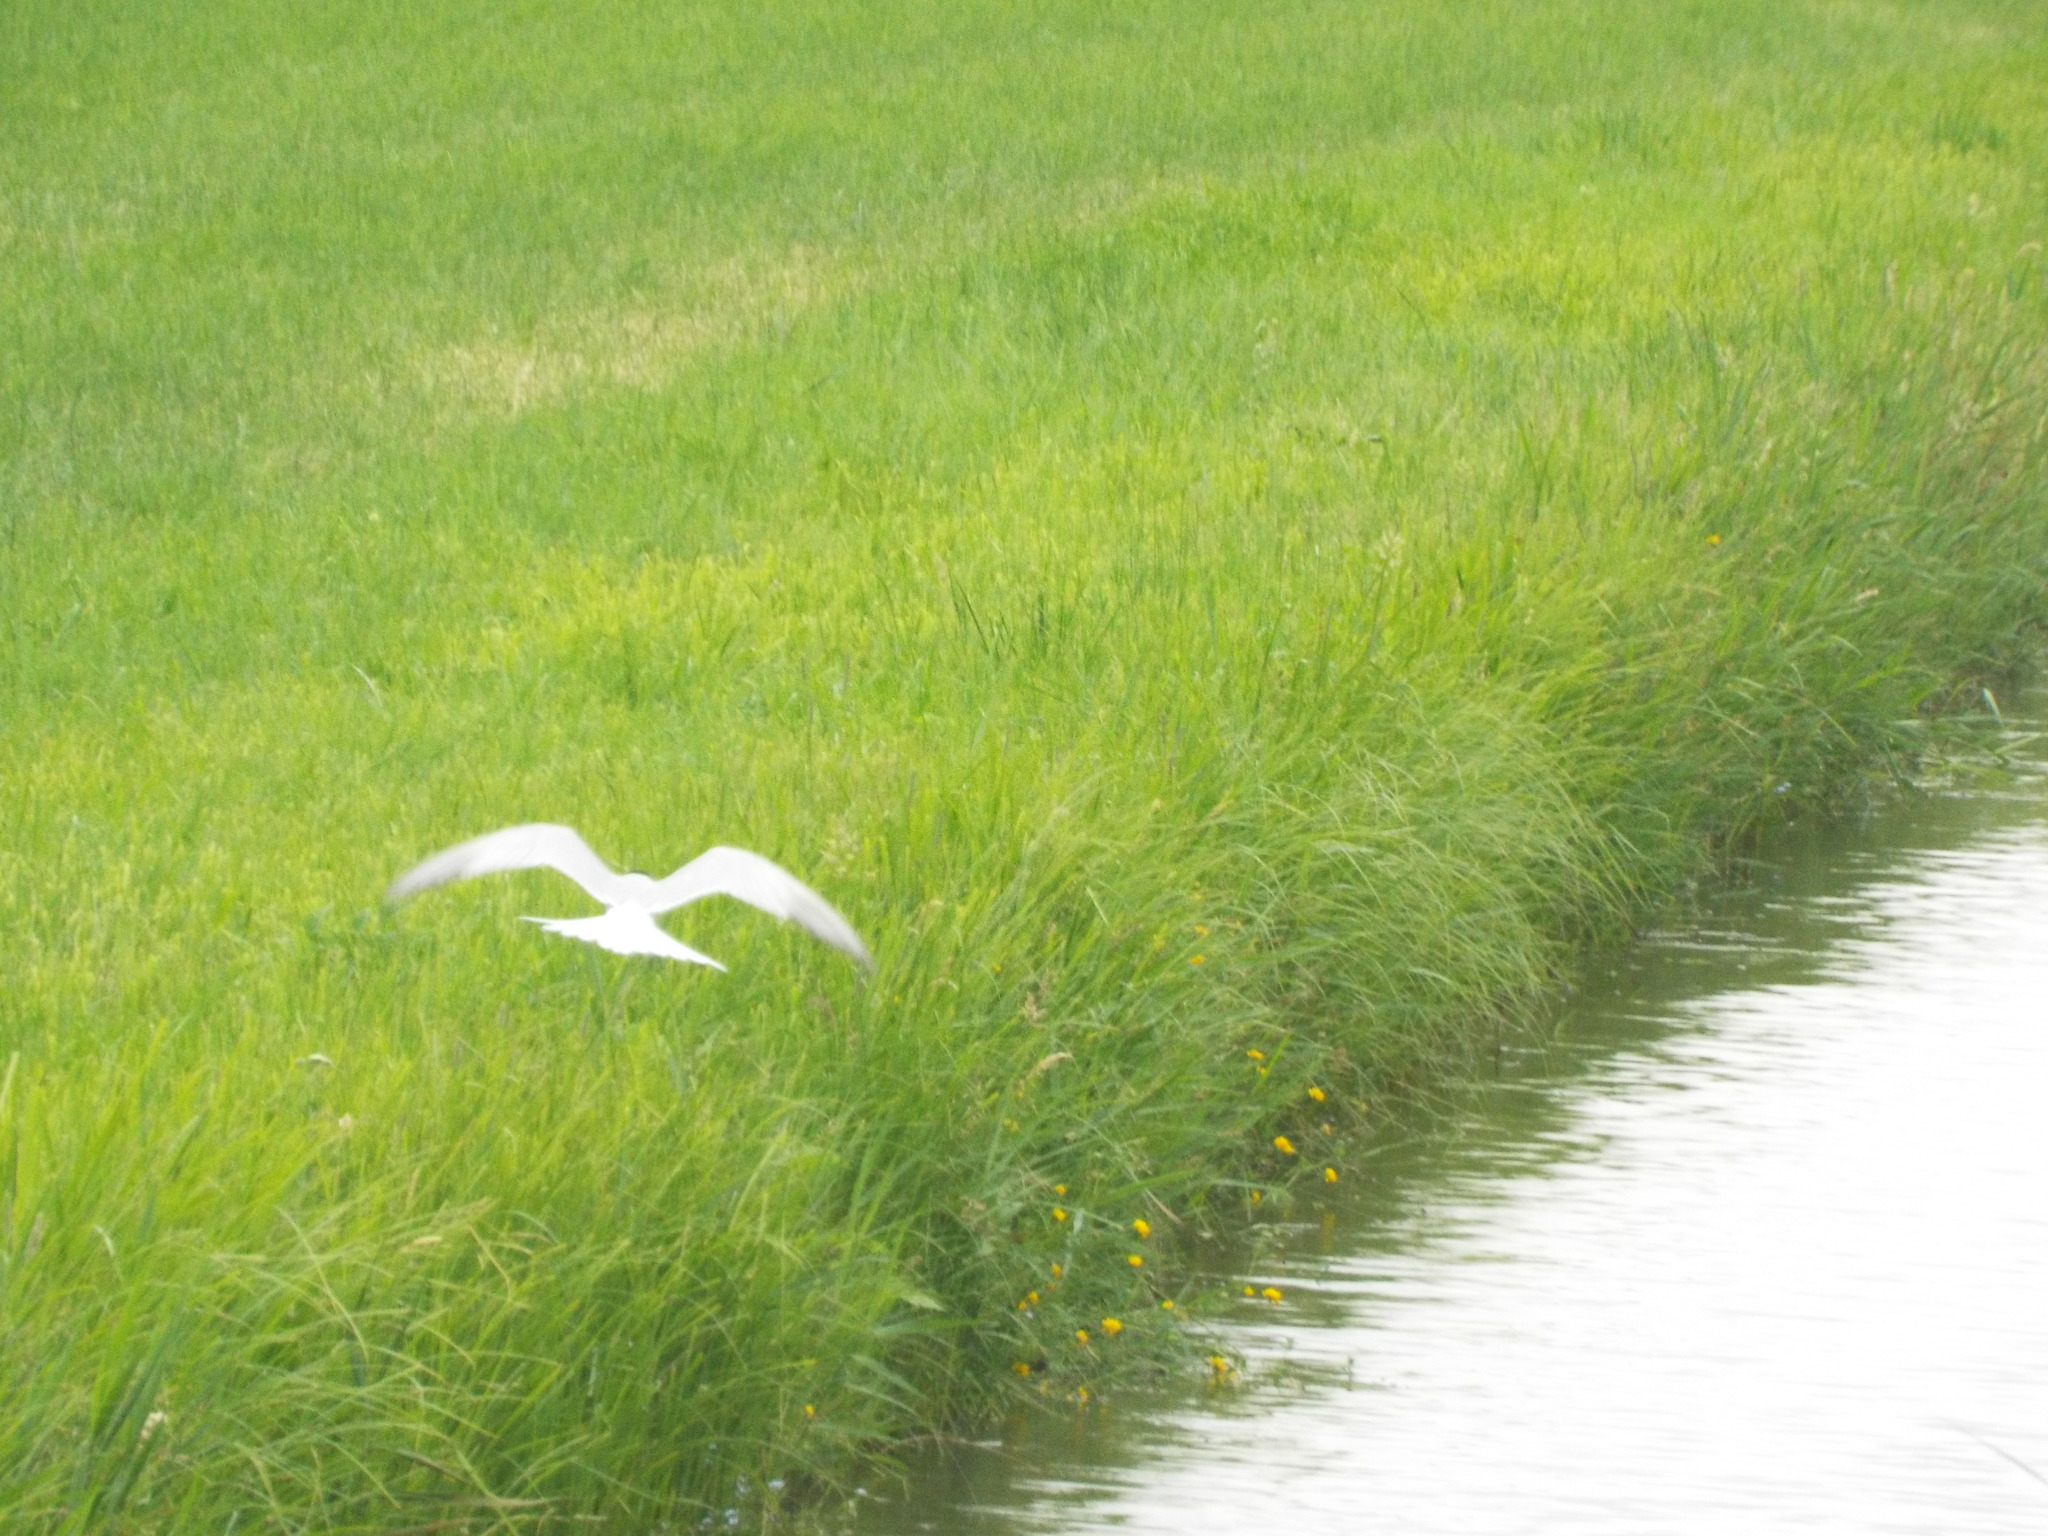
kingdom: Animalia
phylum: Chordata
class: Aves
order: Charadriiformes
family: Laridae
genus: Sterna
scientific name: Sterna hirundo
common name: Common tern
